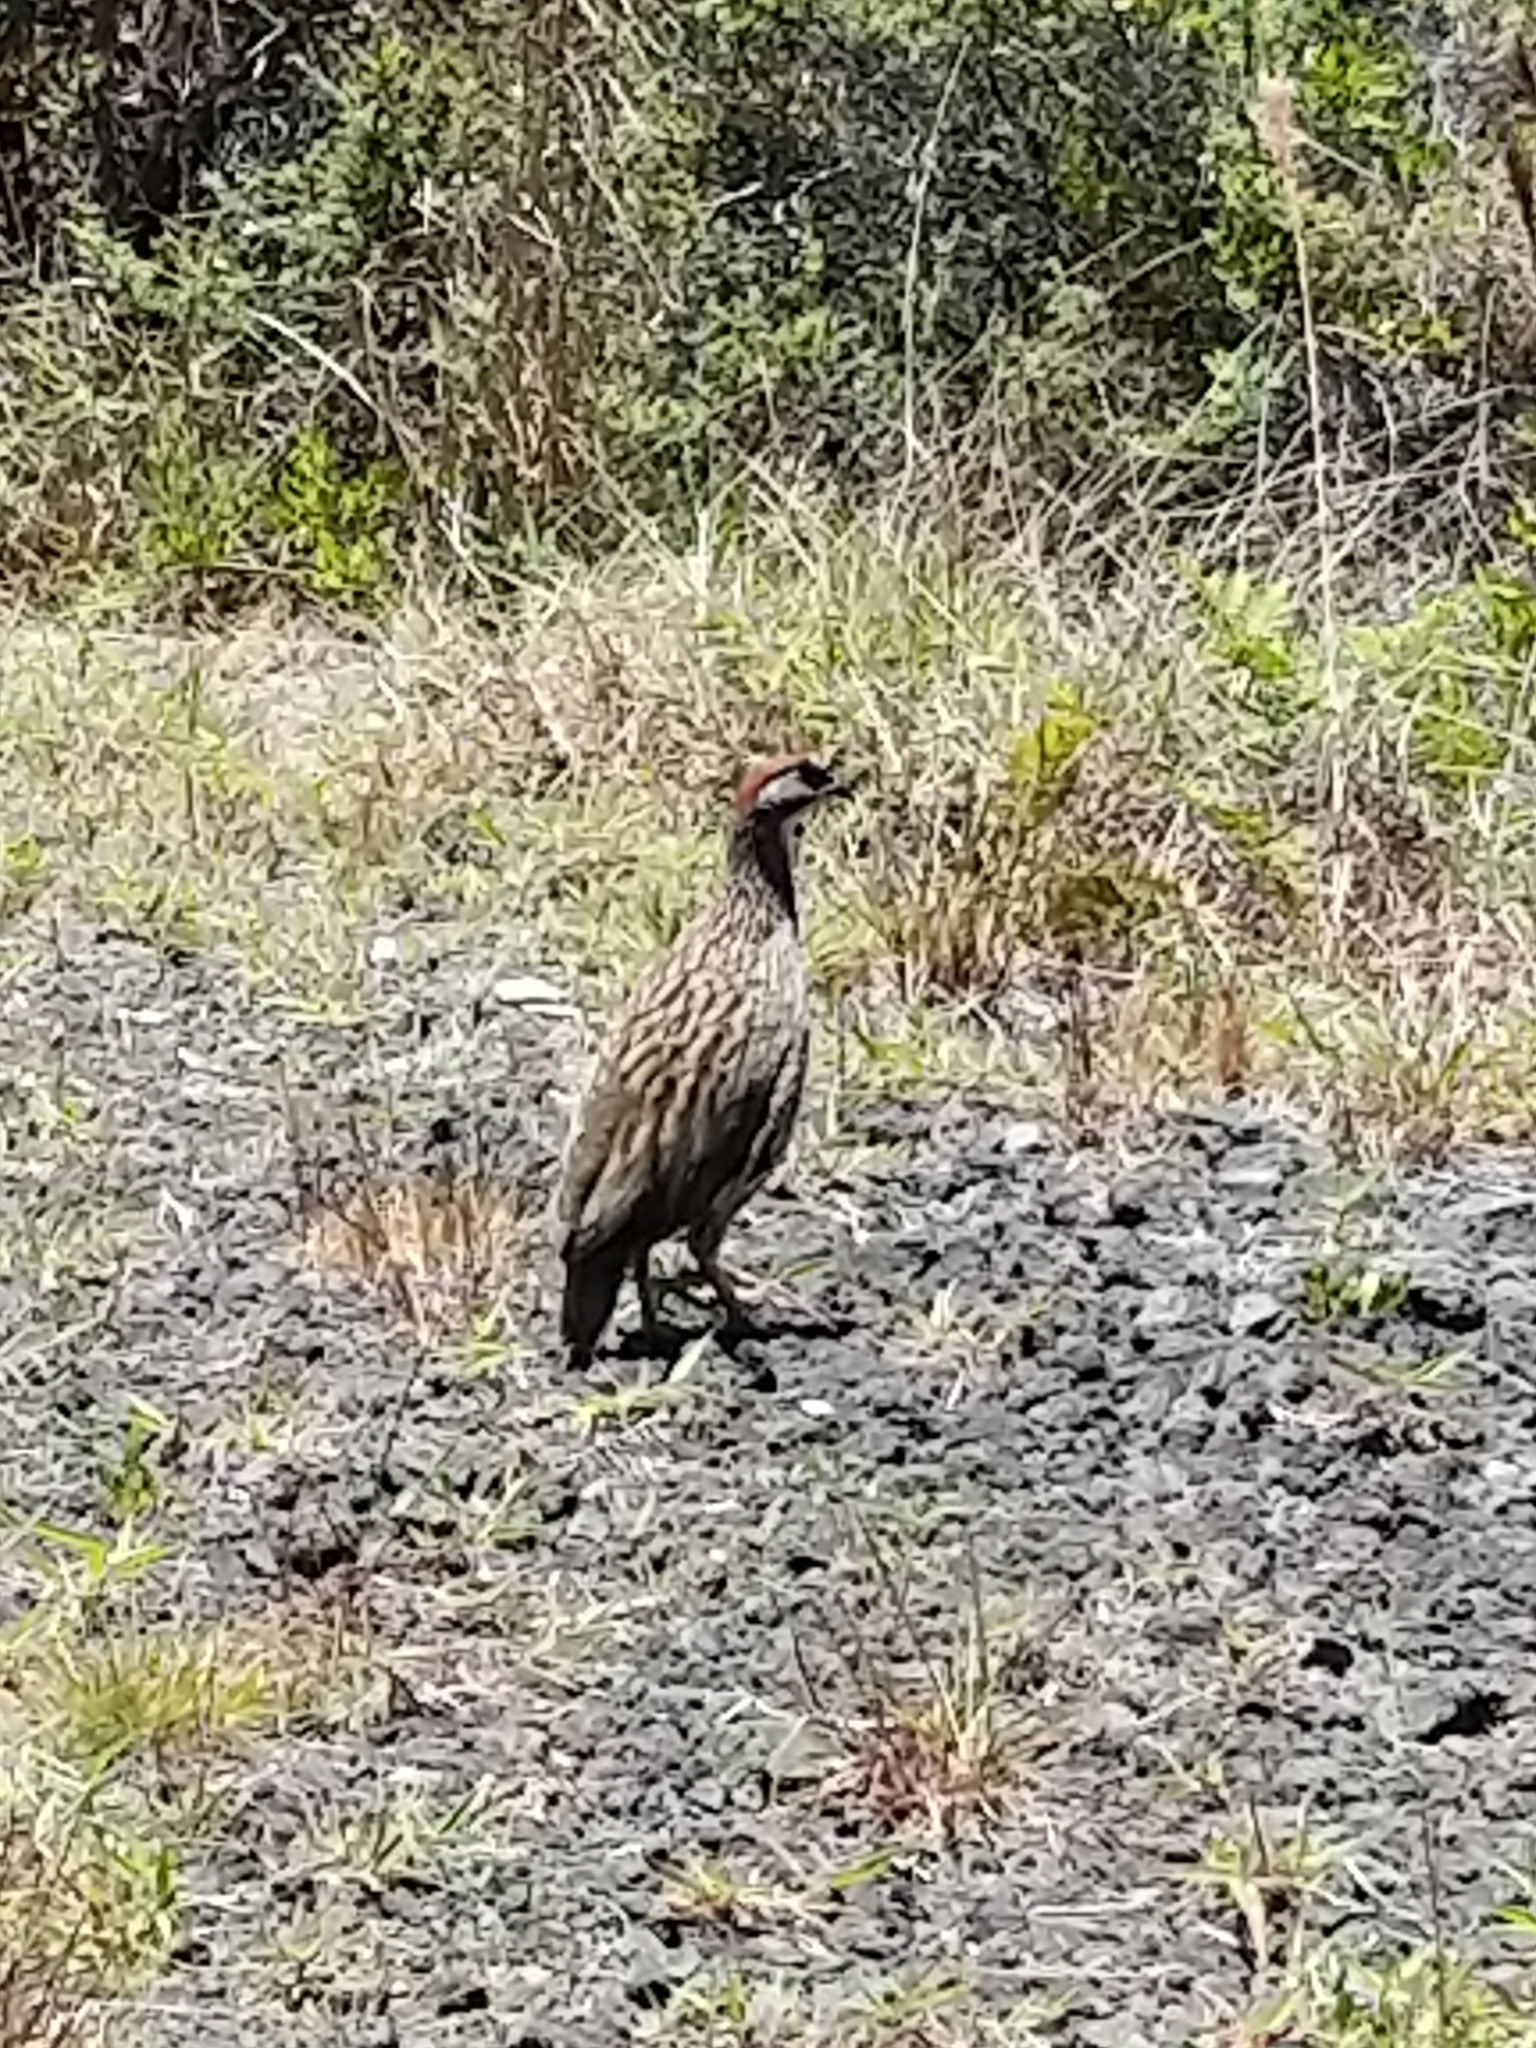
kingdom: Animalia
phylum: Chordata
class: Aves
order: Galliformes
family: Phasianidae
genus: Pternistis
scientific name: Pternistis erckelii
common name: Erckel's francolin
